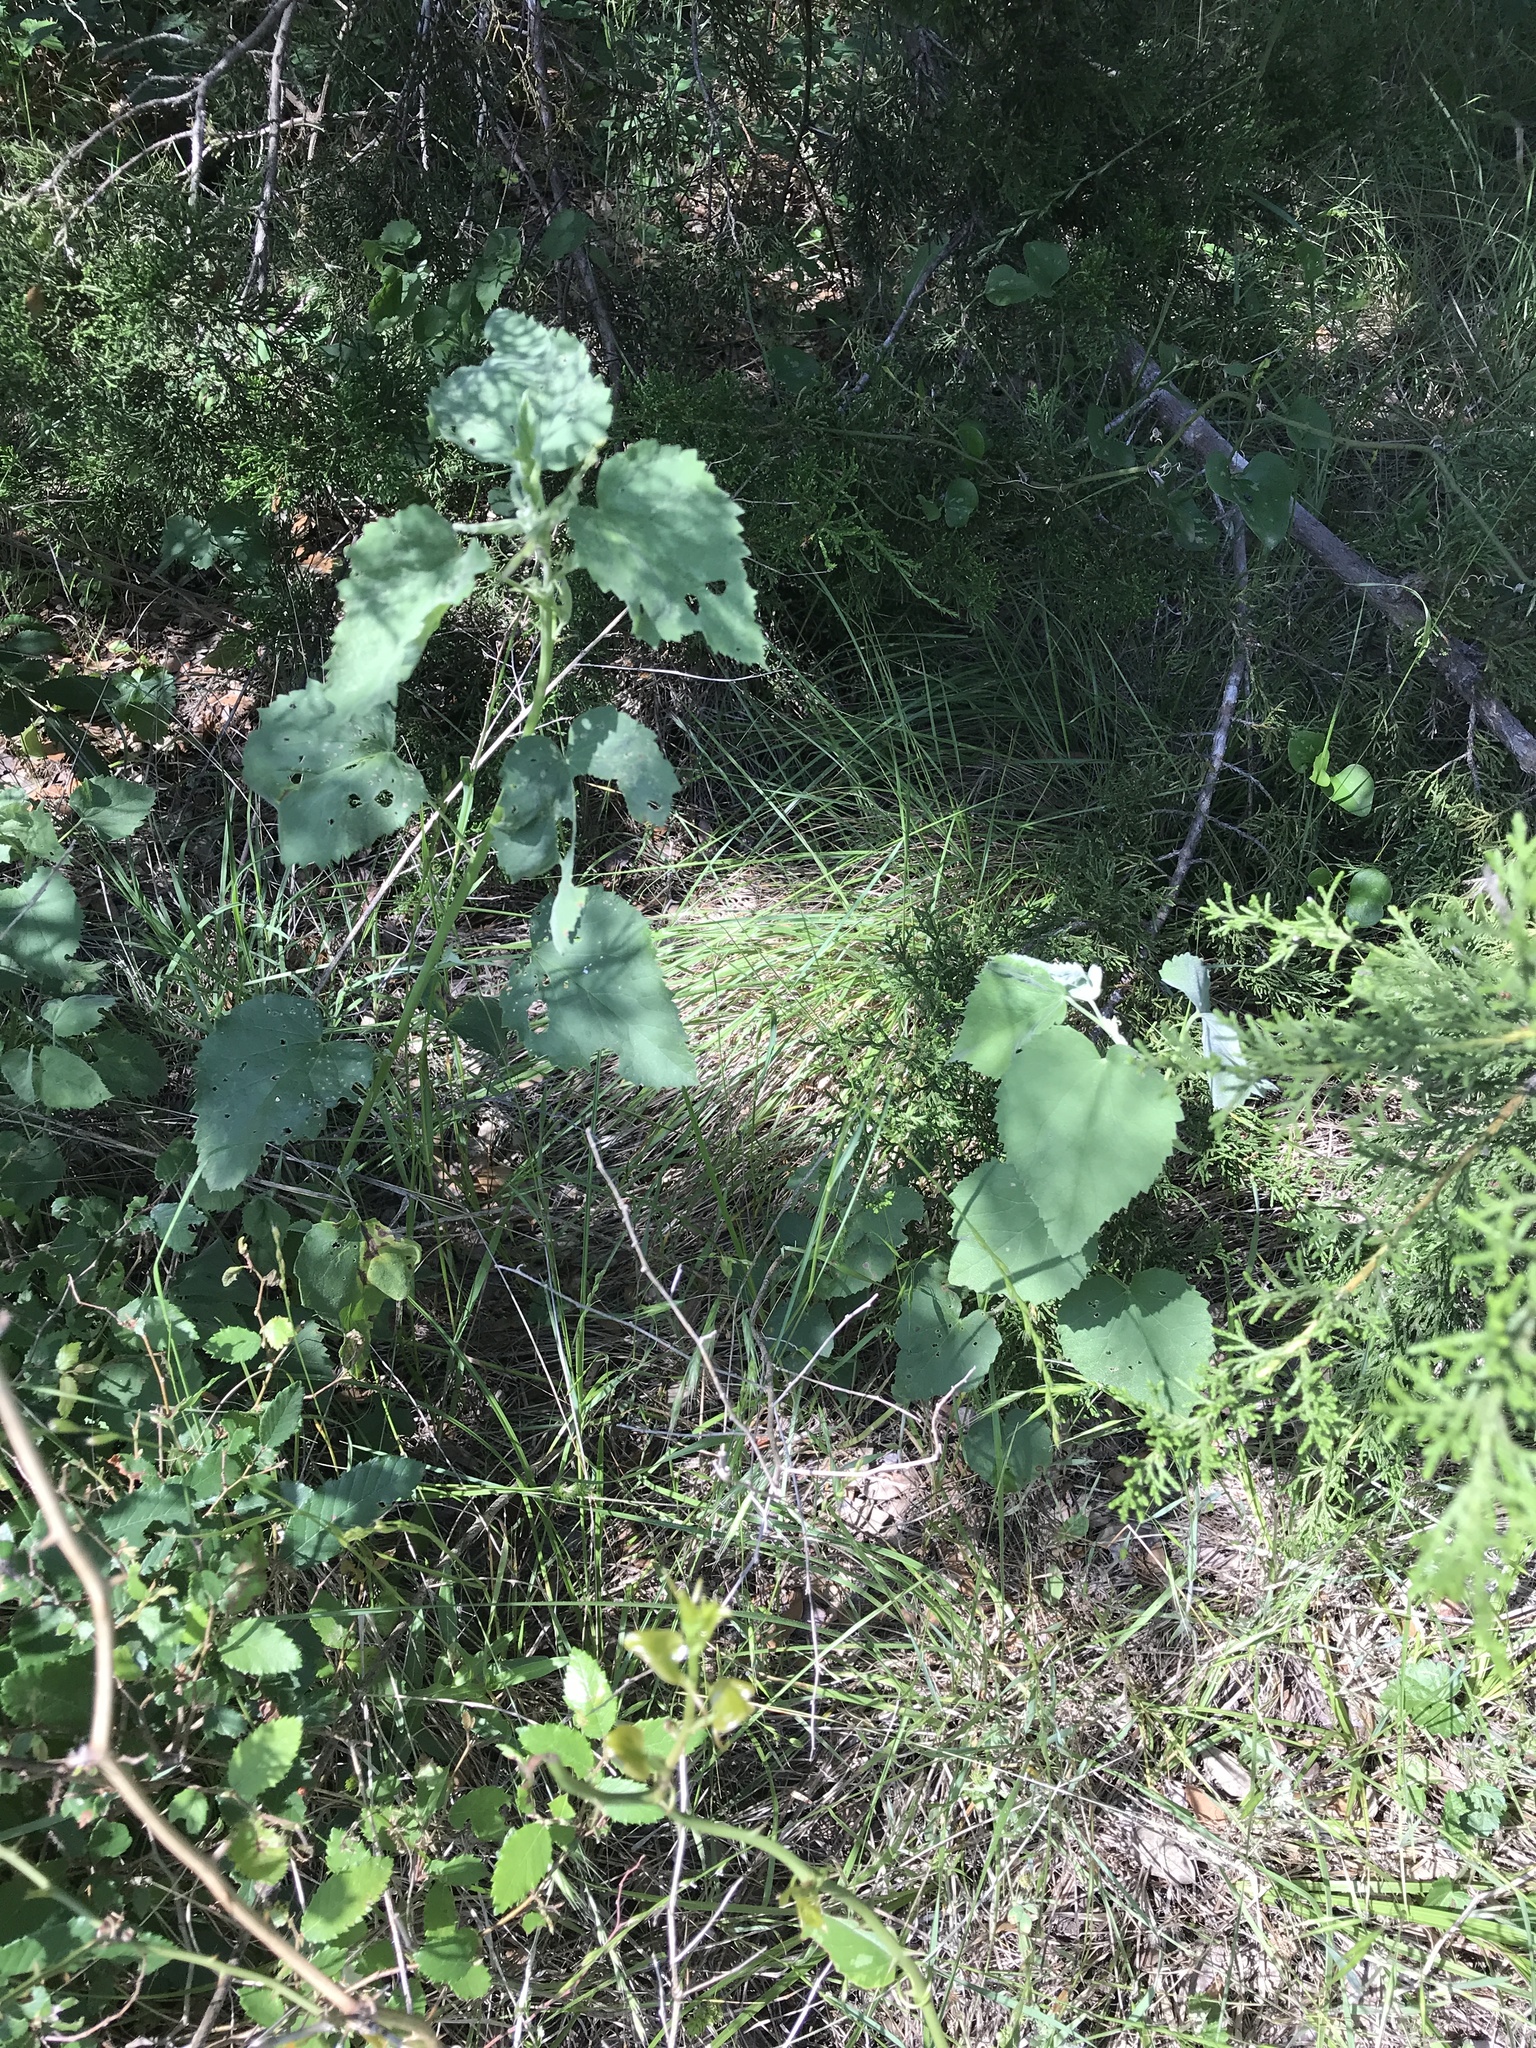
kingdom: Plantae
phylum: Tracheophyta
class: Magnoliopsida
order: Malvales
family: Malvaceae
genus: Abutilon
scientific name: Abutilon fruticosum
